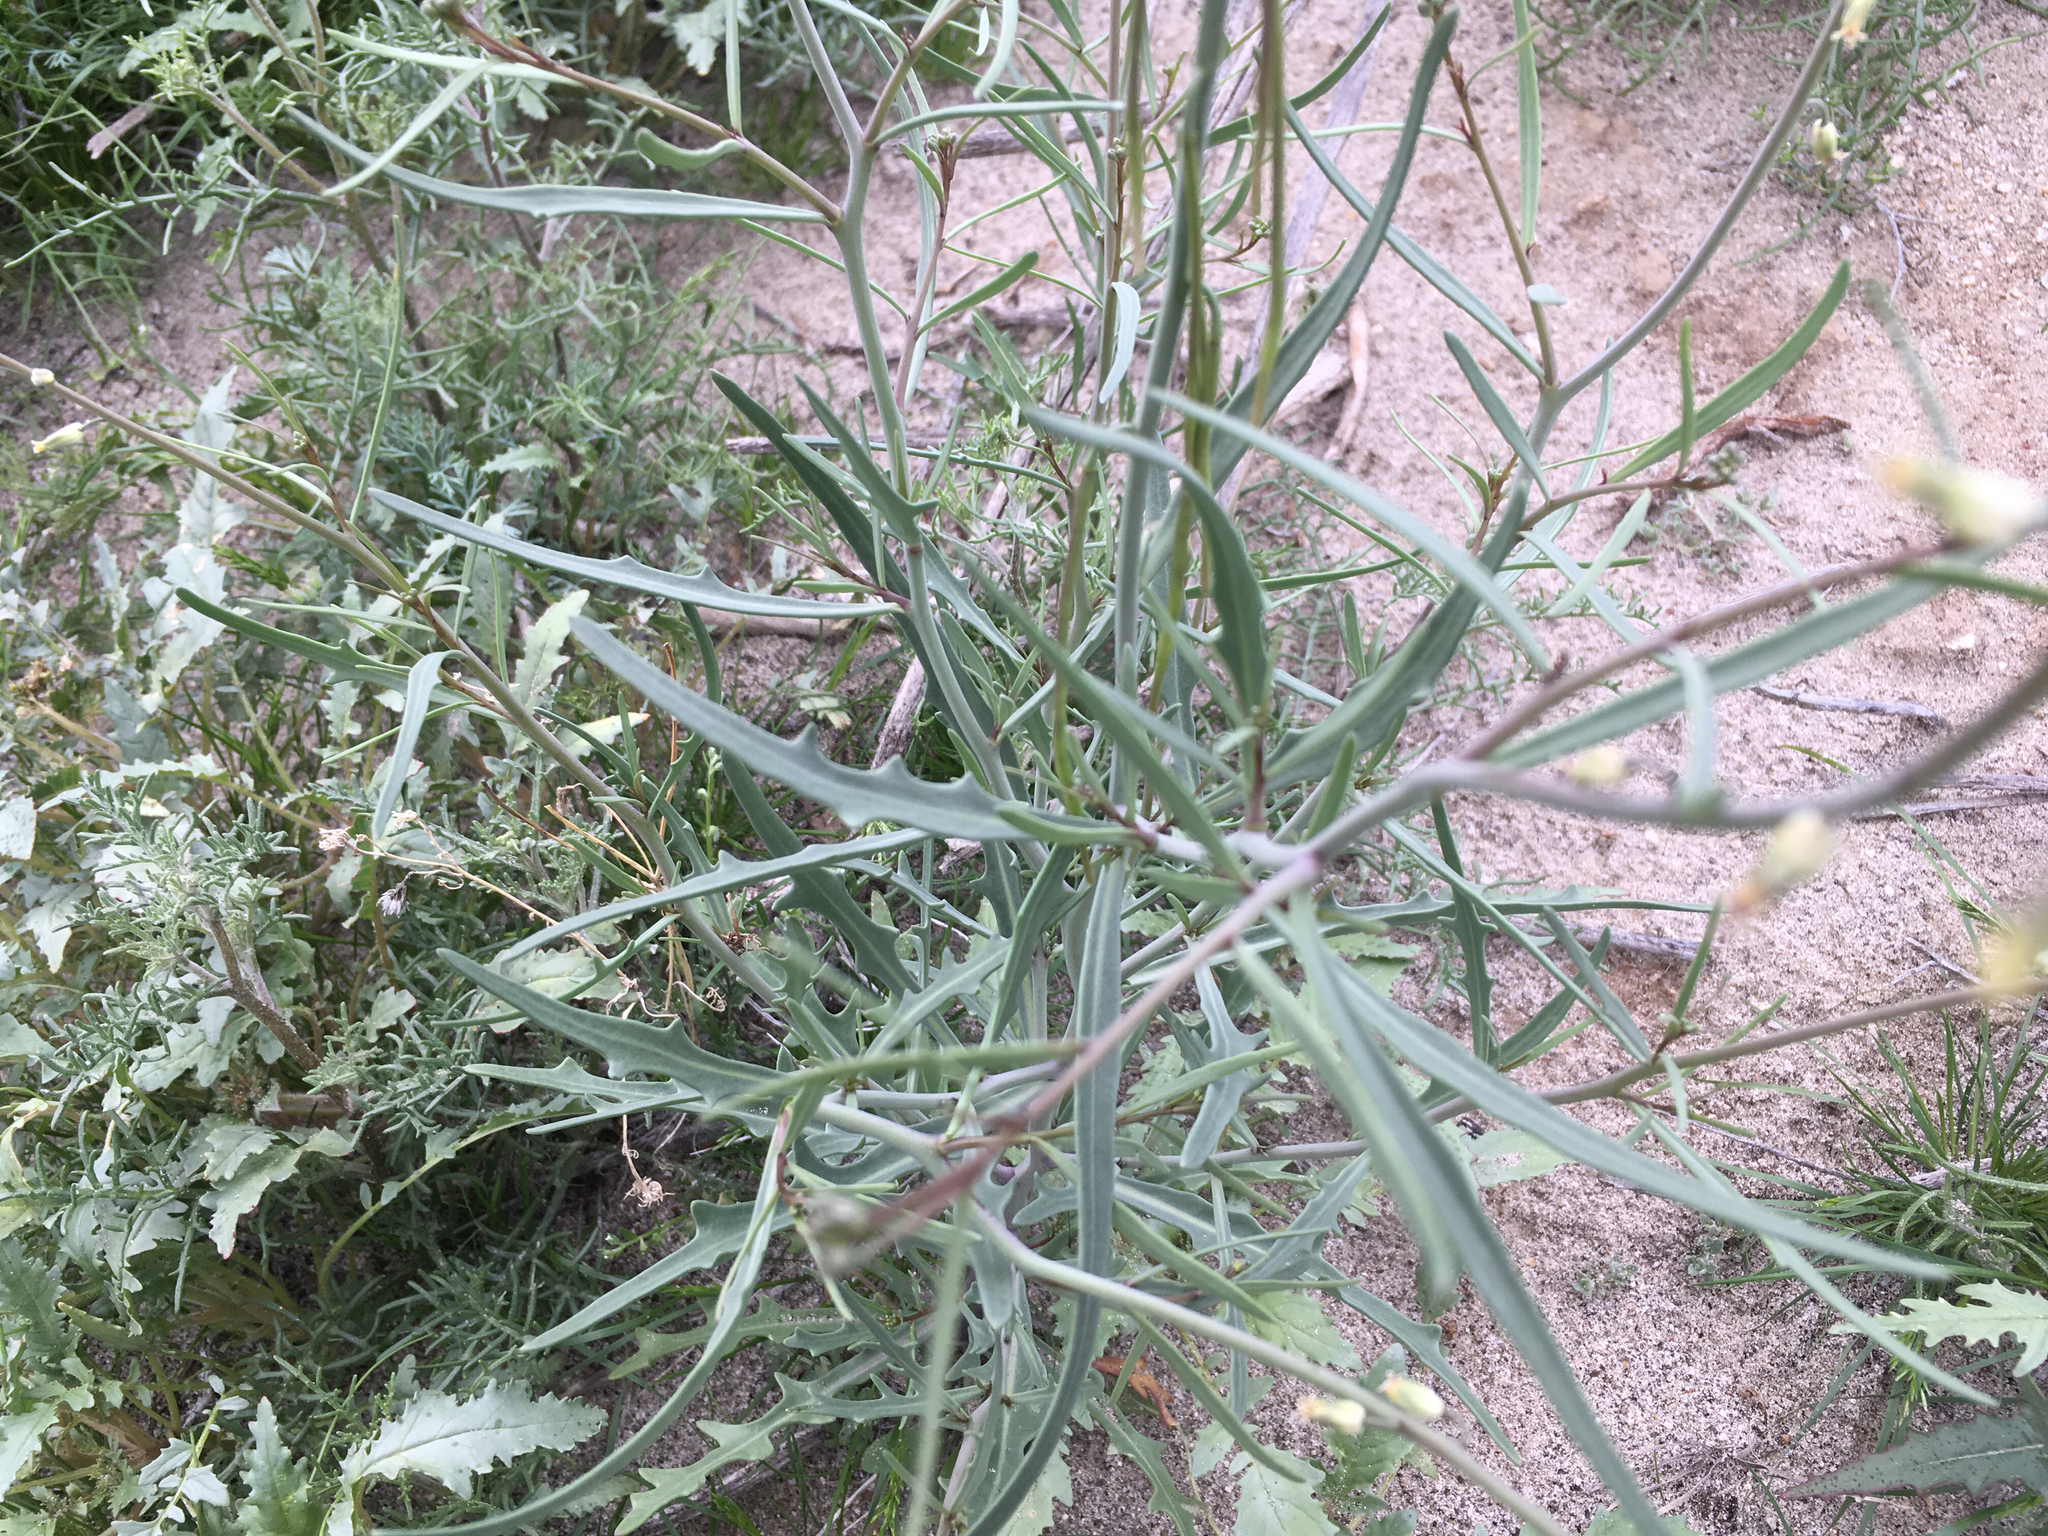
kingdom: Plantae
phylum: Tracheophyta
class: Magnoliopsida
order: Brassicales
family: Brassicaceae
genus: Streptanthus
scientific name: Streptanthus longirostris
